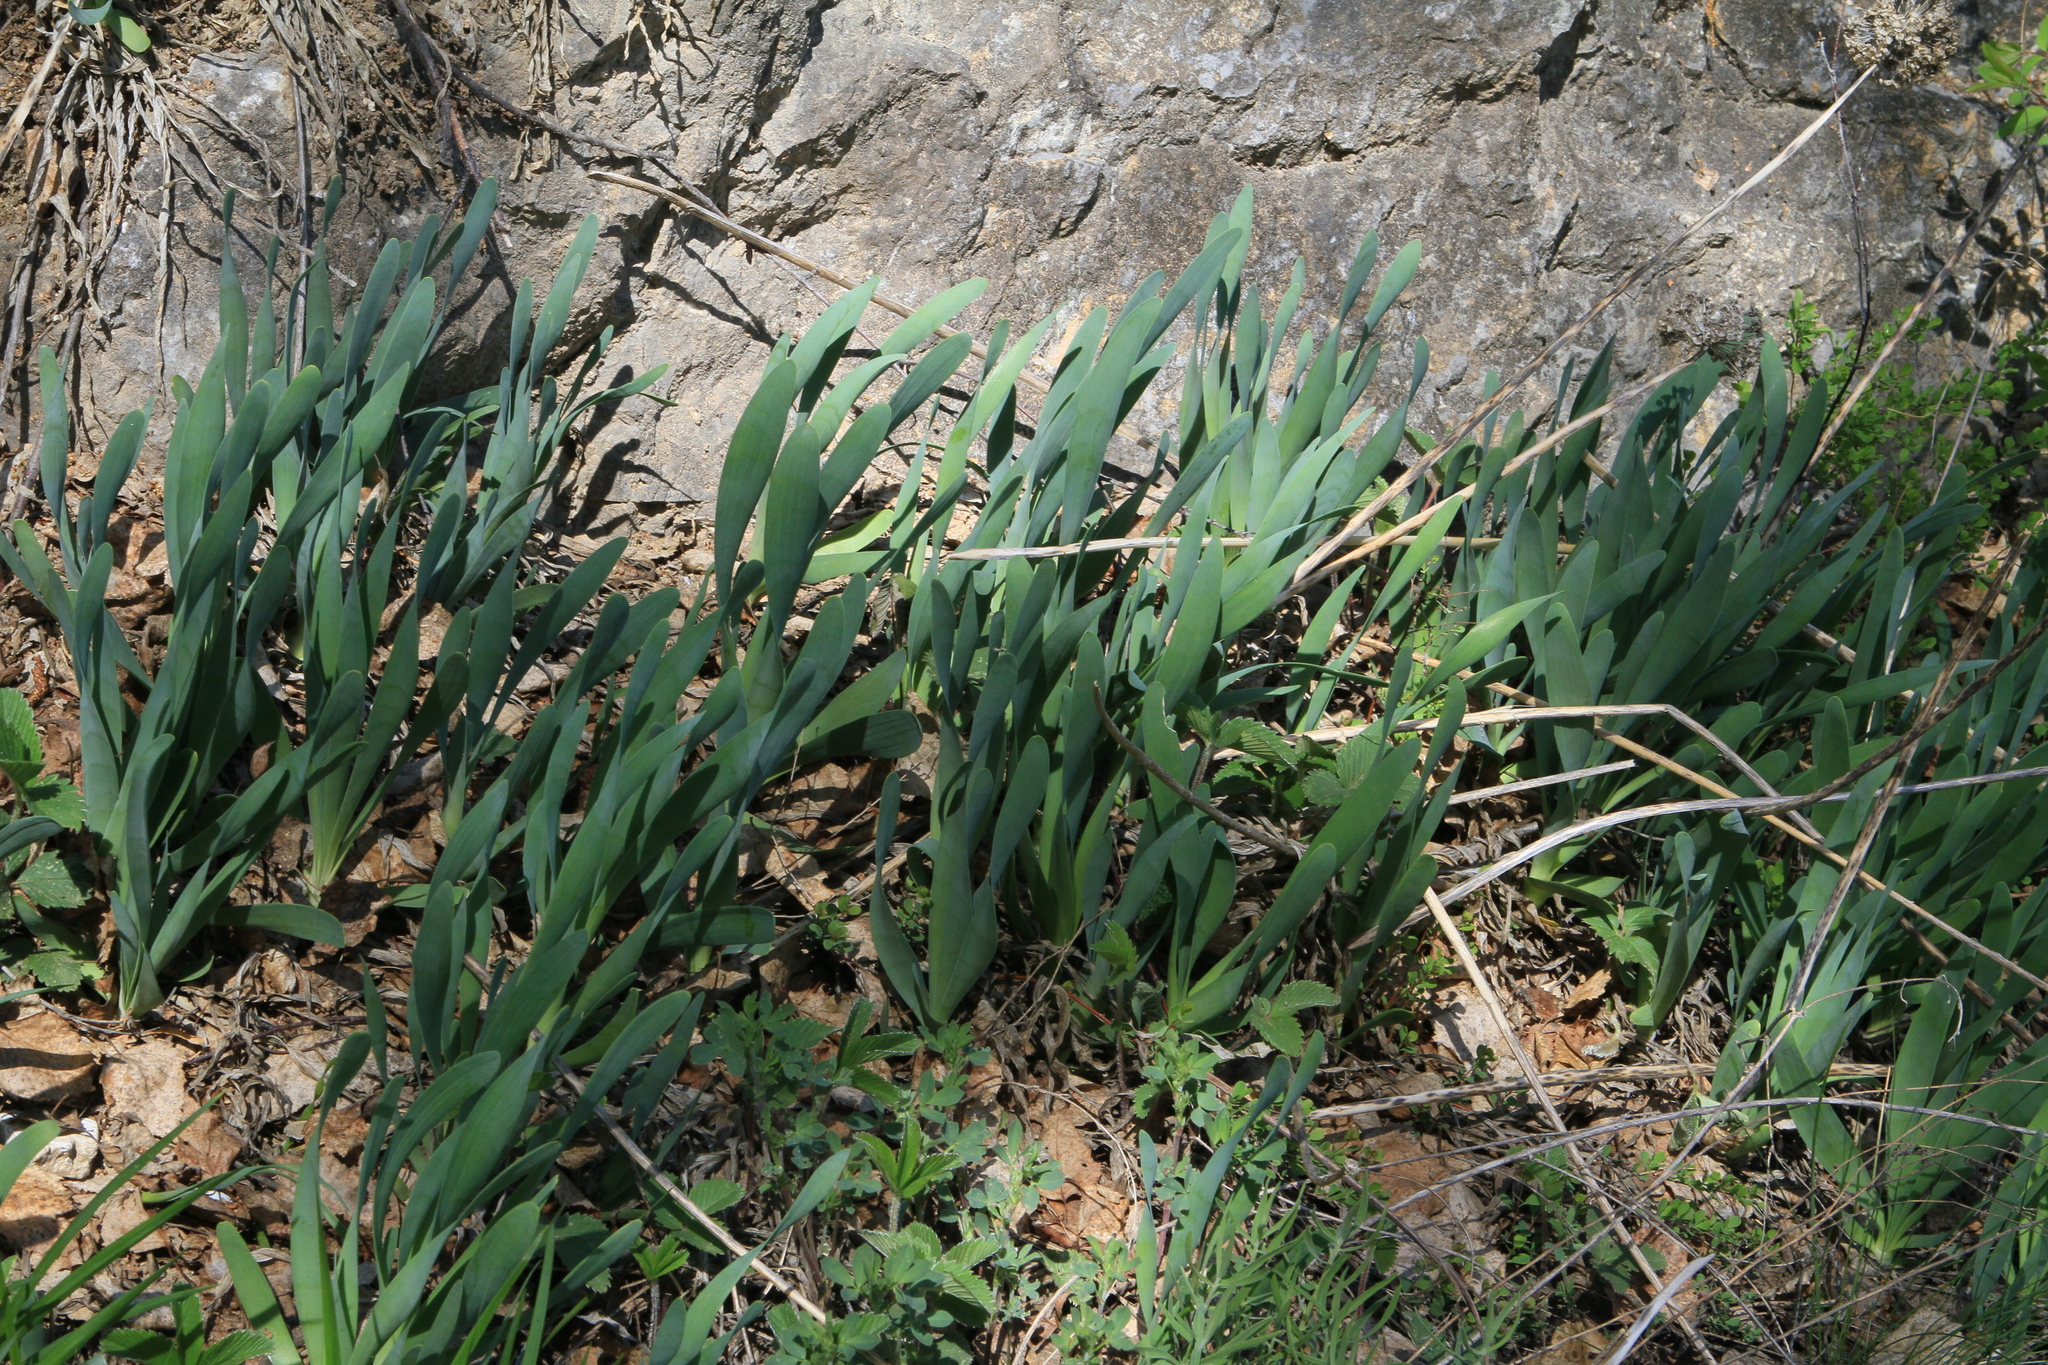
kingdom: Plantae
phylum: Tracheophyta
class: Liliopsida
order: Asparagales
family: Amaryllidaceae
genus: Allium
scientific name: Allium nutans
